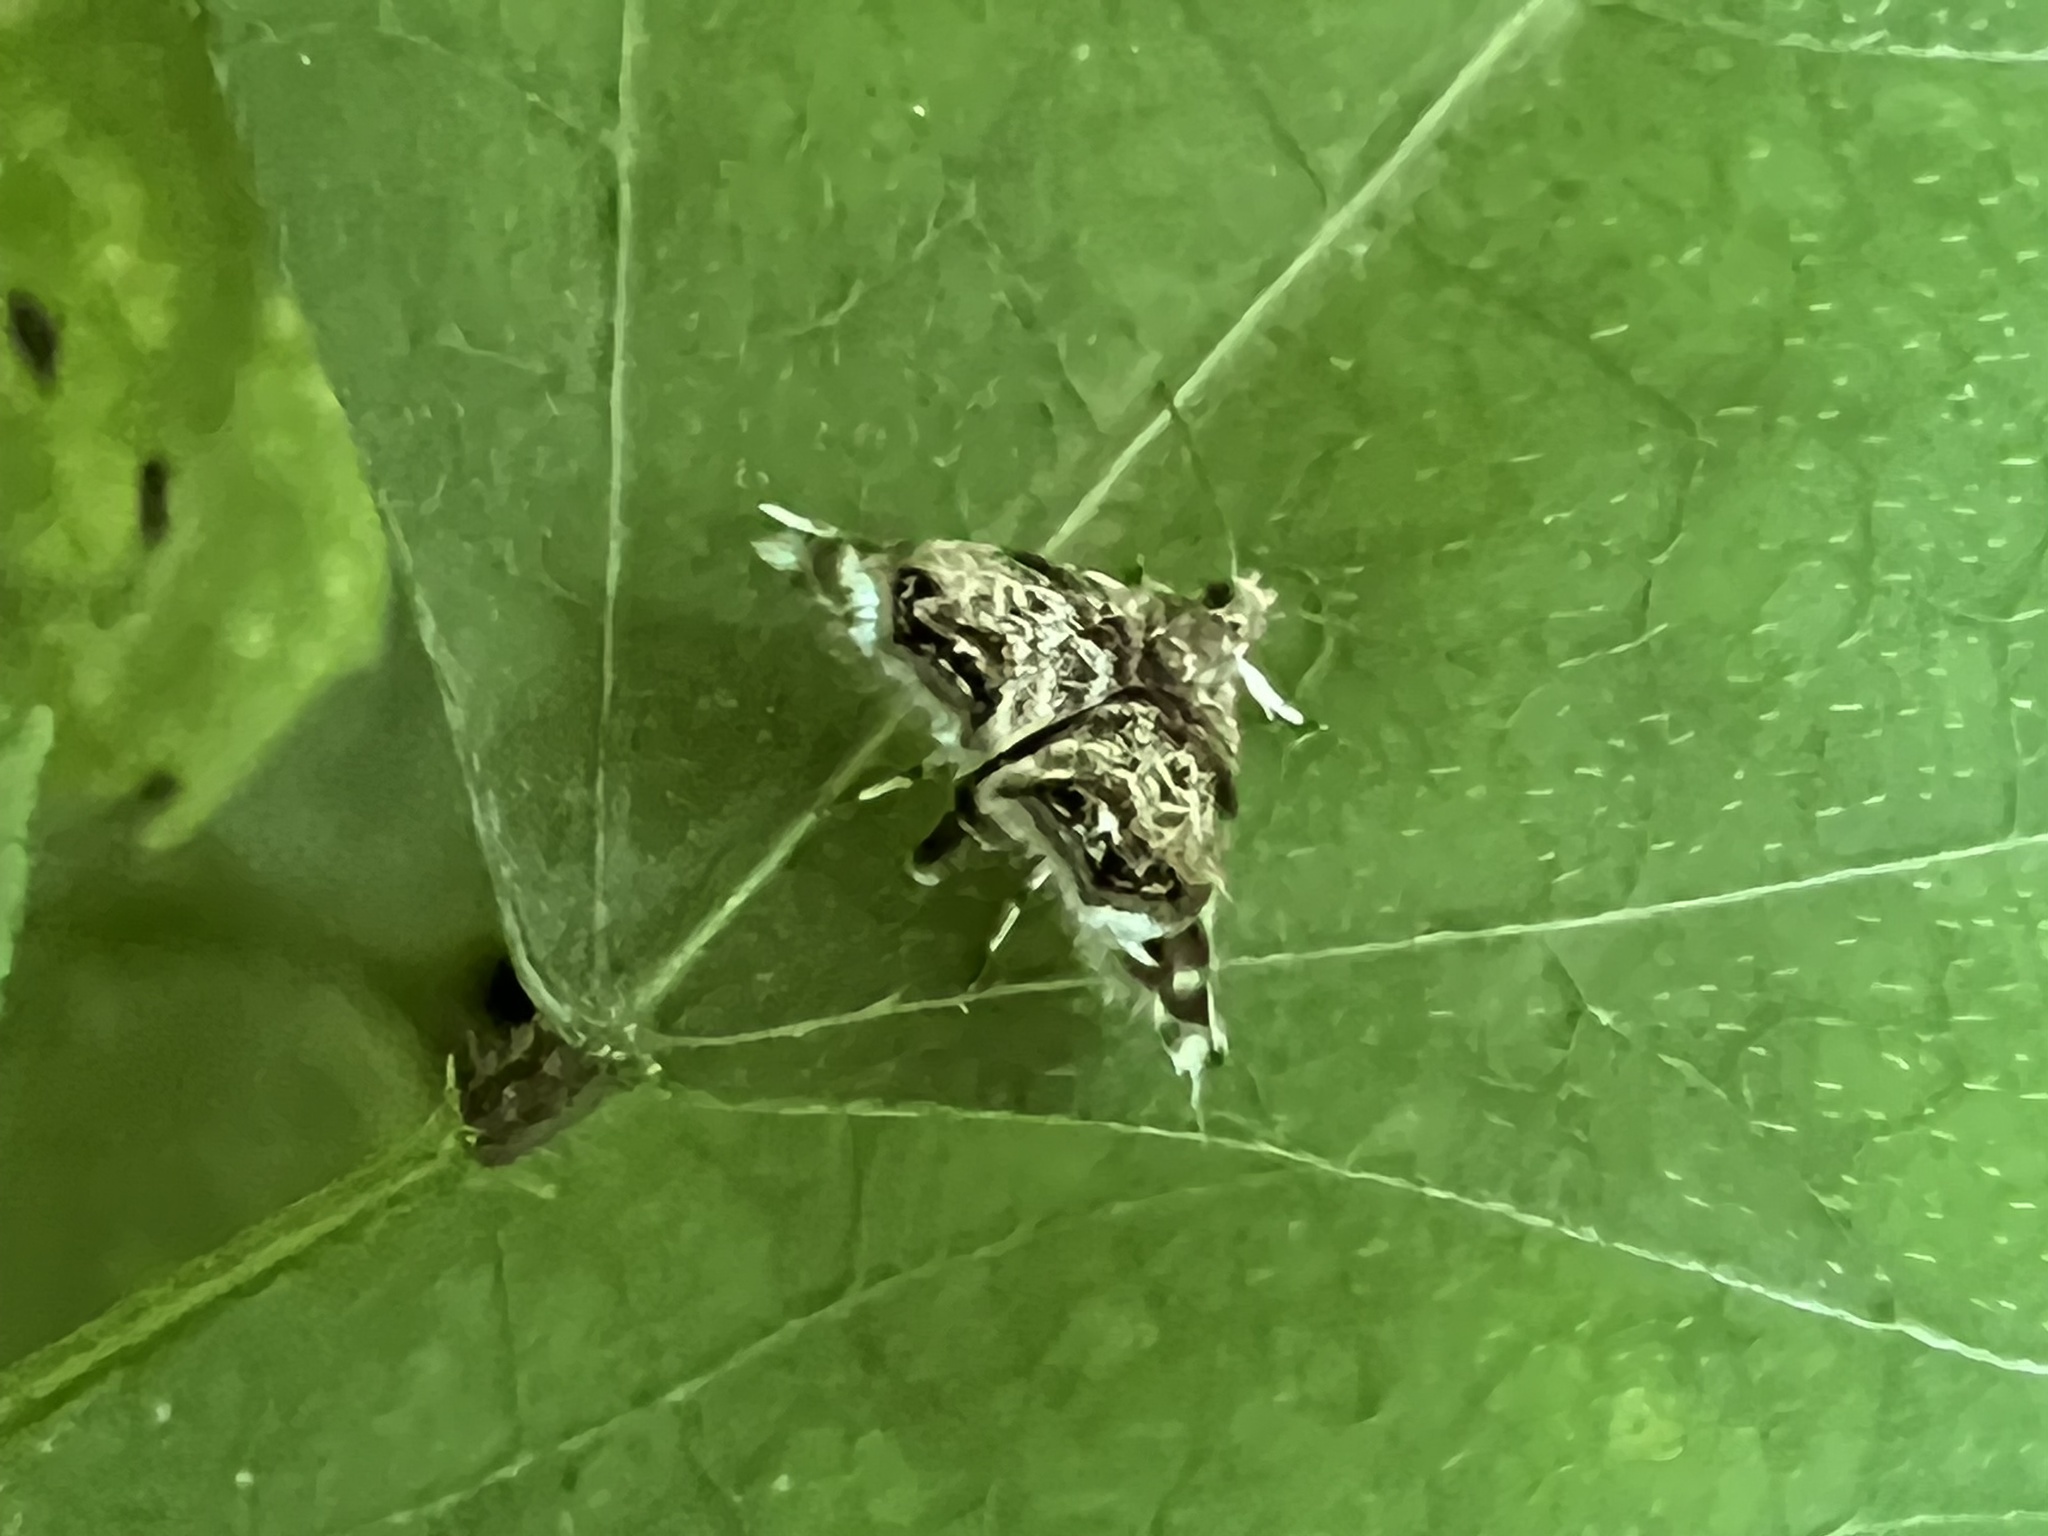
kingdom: Animalia
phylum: Arthropoda
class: Insecta
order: Lepidoptera
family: Choreutidae
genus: Brenthia
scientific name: Brenthia pavonacella
